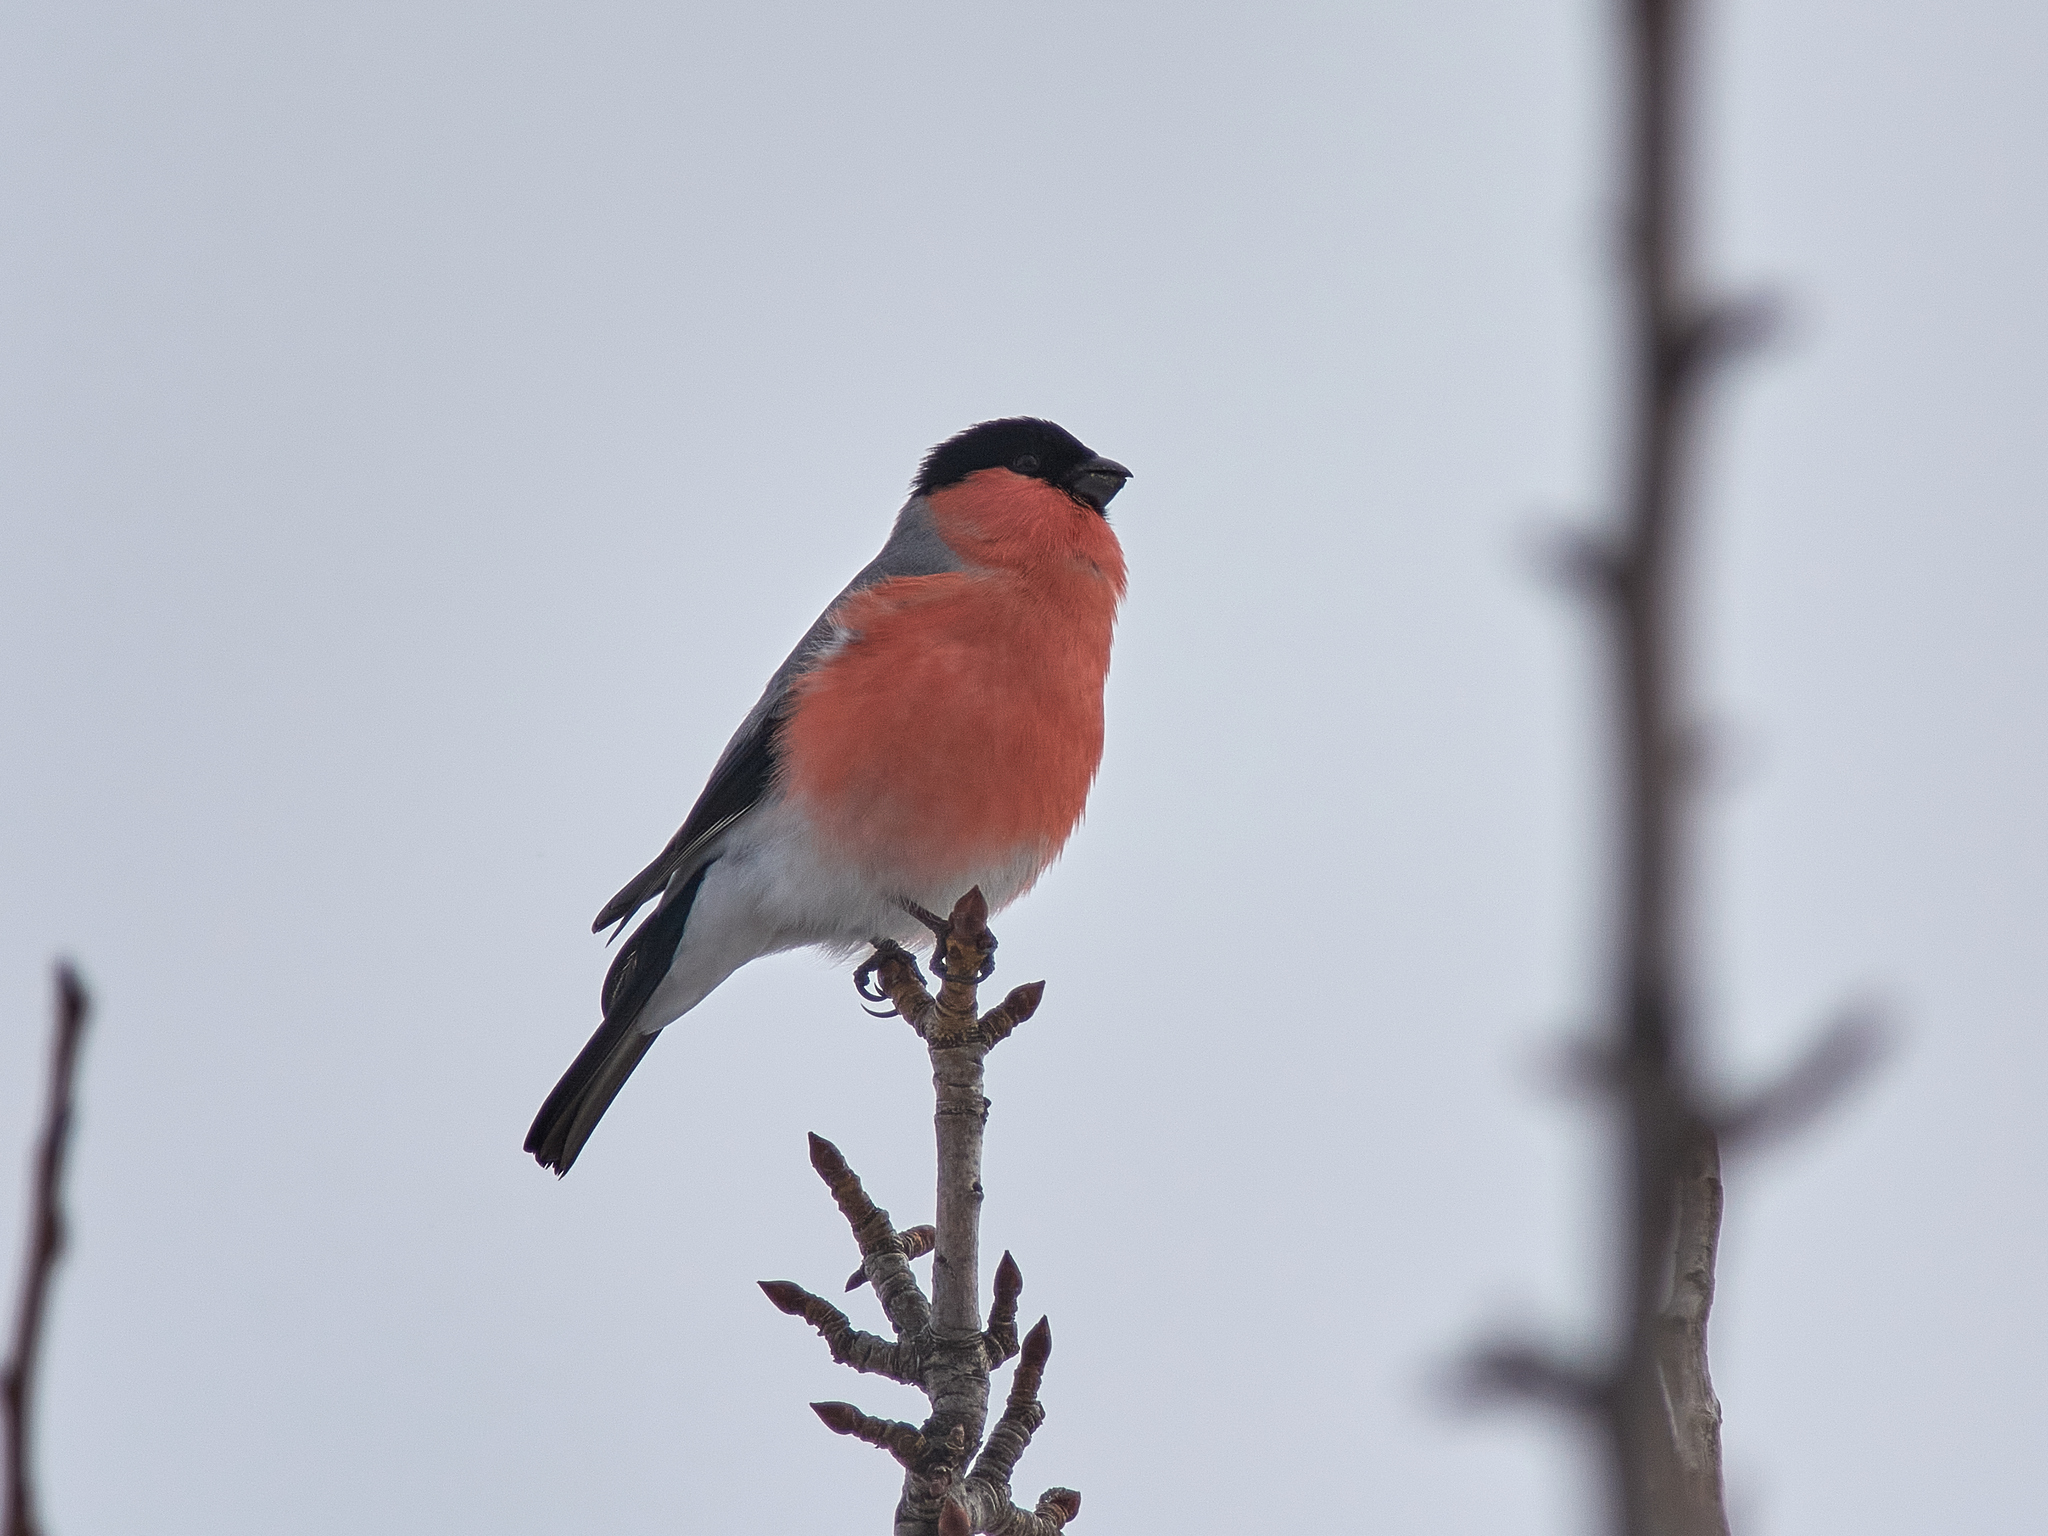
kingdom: Animalia
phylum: Chordata
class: Aves
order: Passeriformes
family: Fringillidae
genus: Pyrrhula
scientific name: Pyrrhula pyrrhula
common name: Eurasian bullfinch
